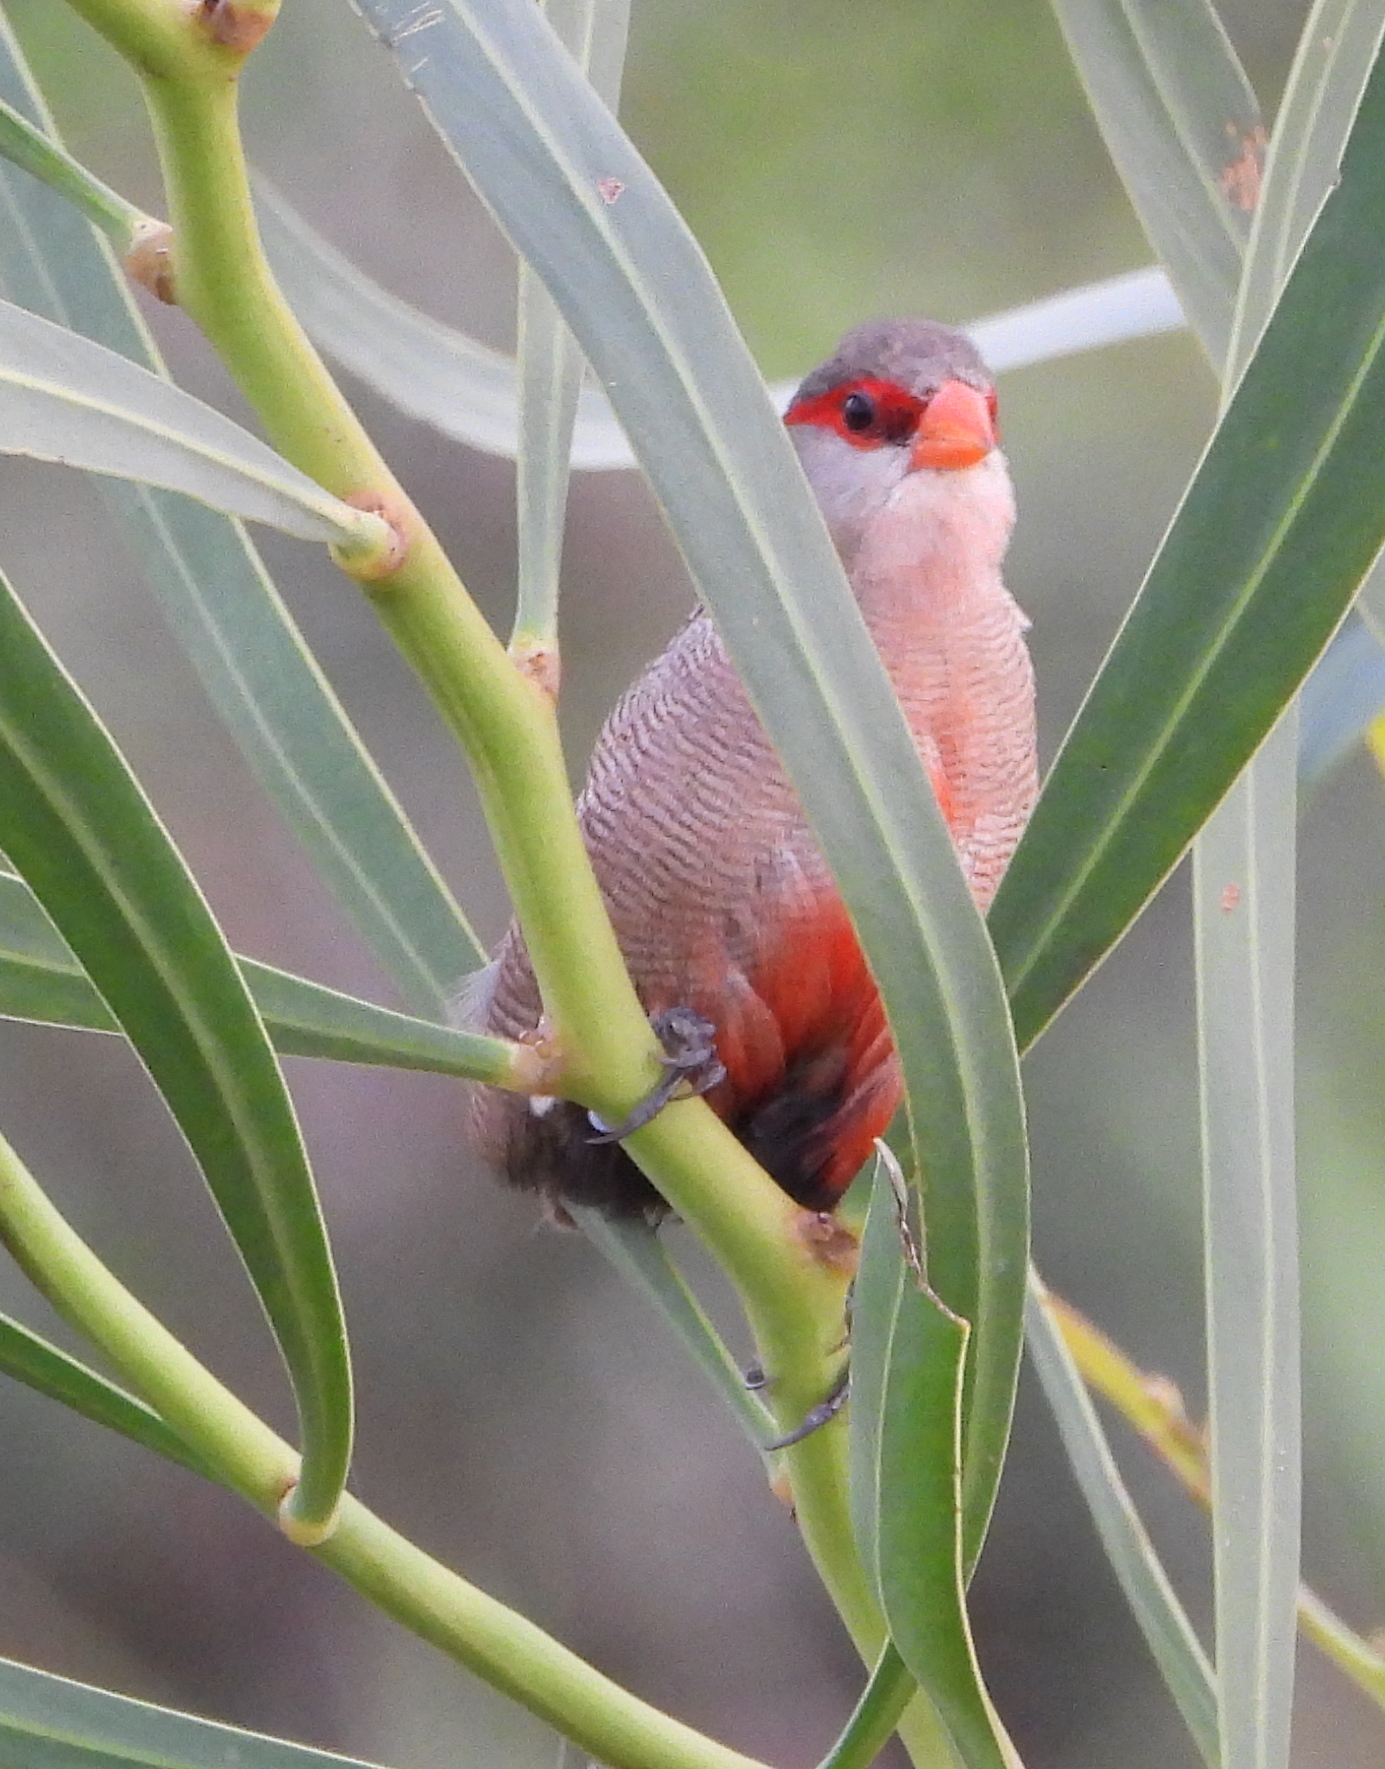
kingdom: Animalia
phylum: Chordata
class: Aves
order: Passeriformes
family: Estrildidae
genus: Estrilda
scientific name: Estrilda astrild
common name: Common waxbill
